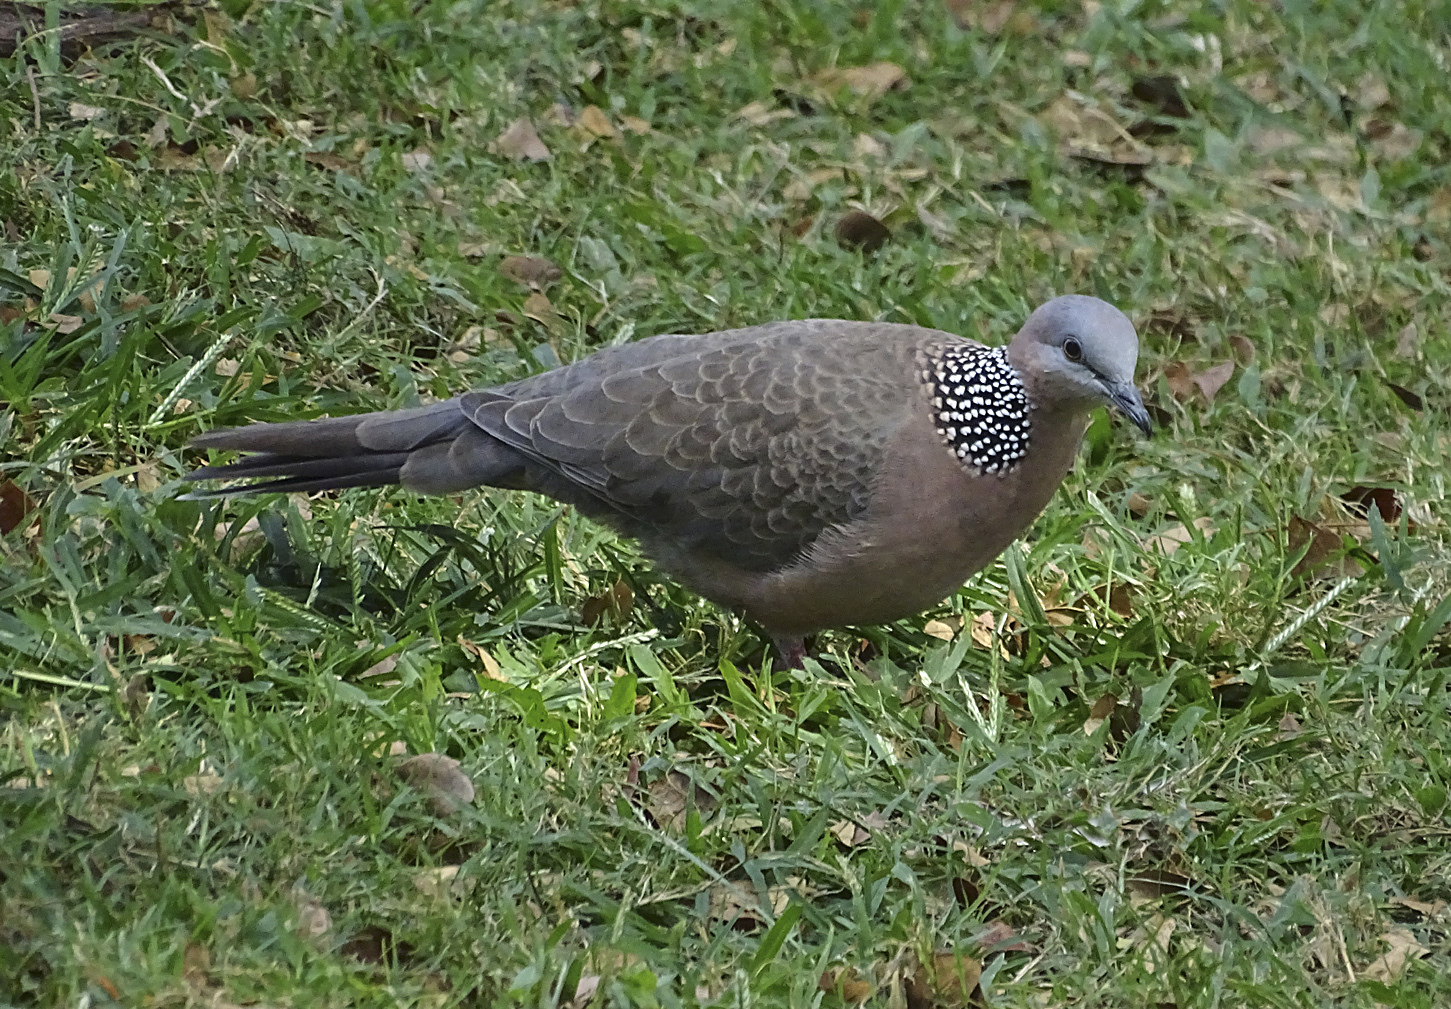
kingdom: Animalia
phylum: Chordata
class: Aves
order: Columbiformes
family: Columbidae
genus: Spilopelia
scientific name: Spilopelia chinensis
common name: Spotted dove
